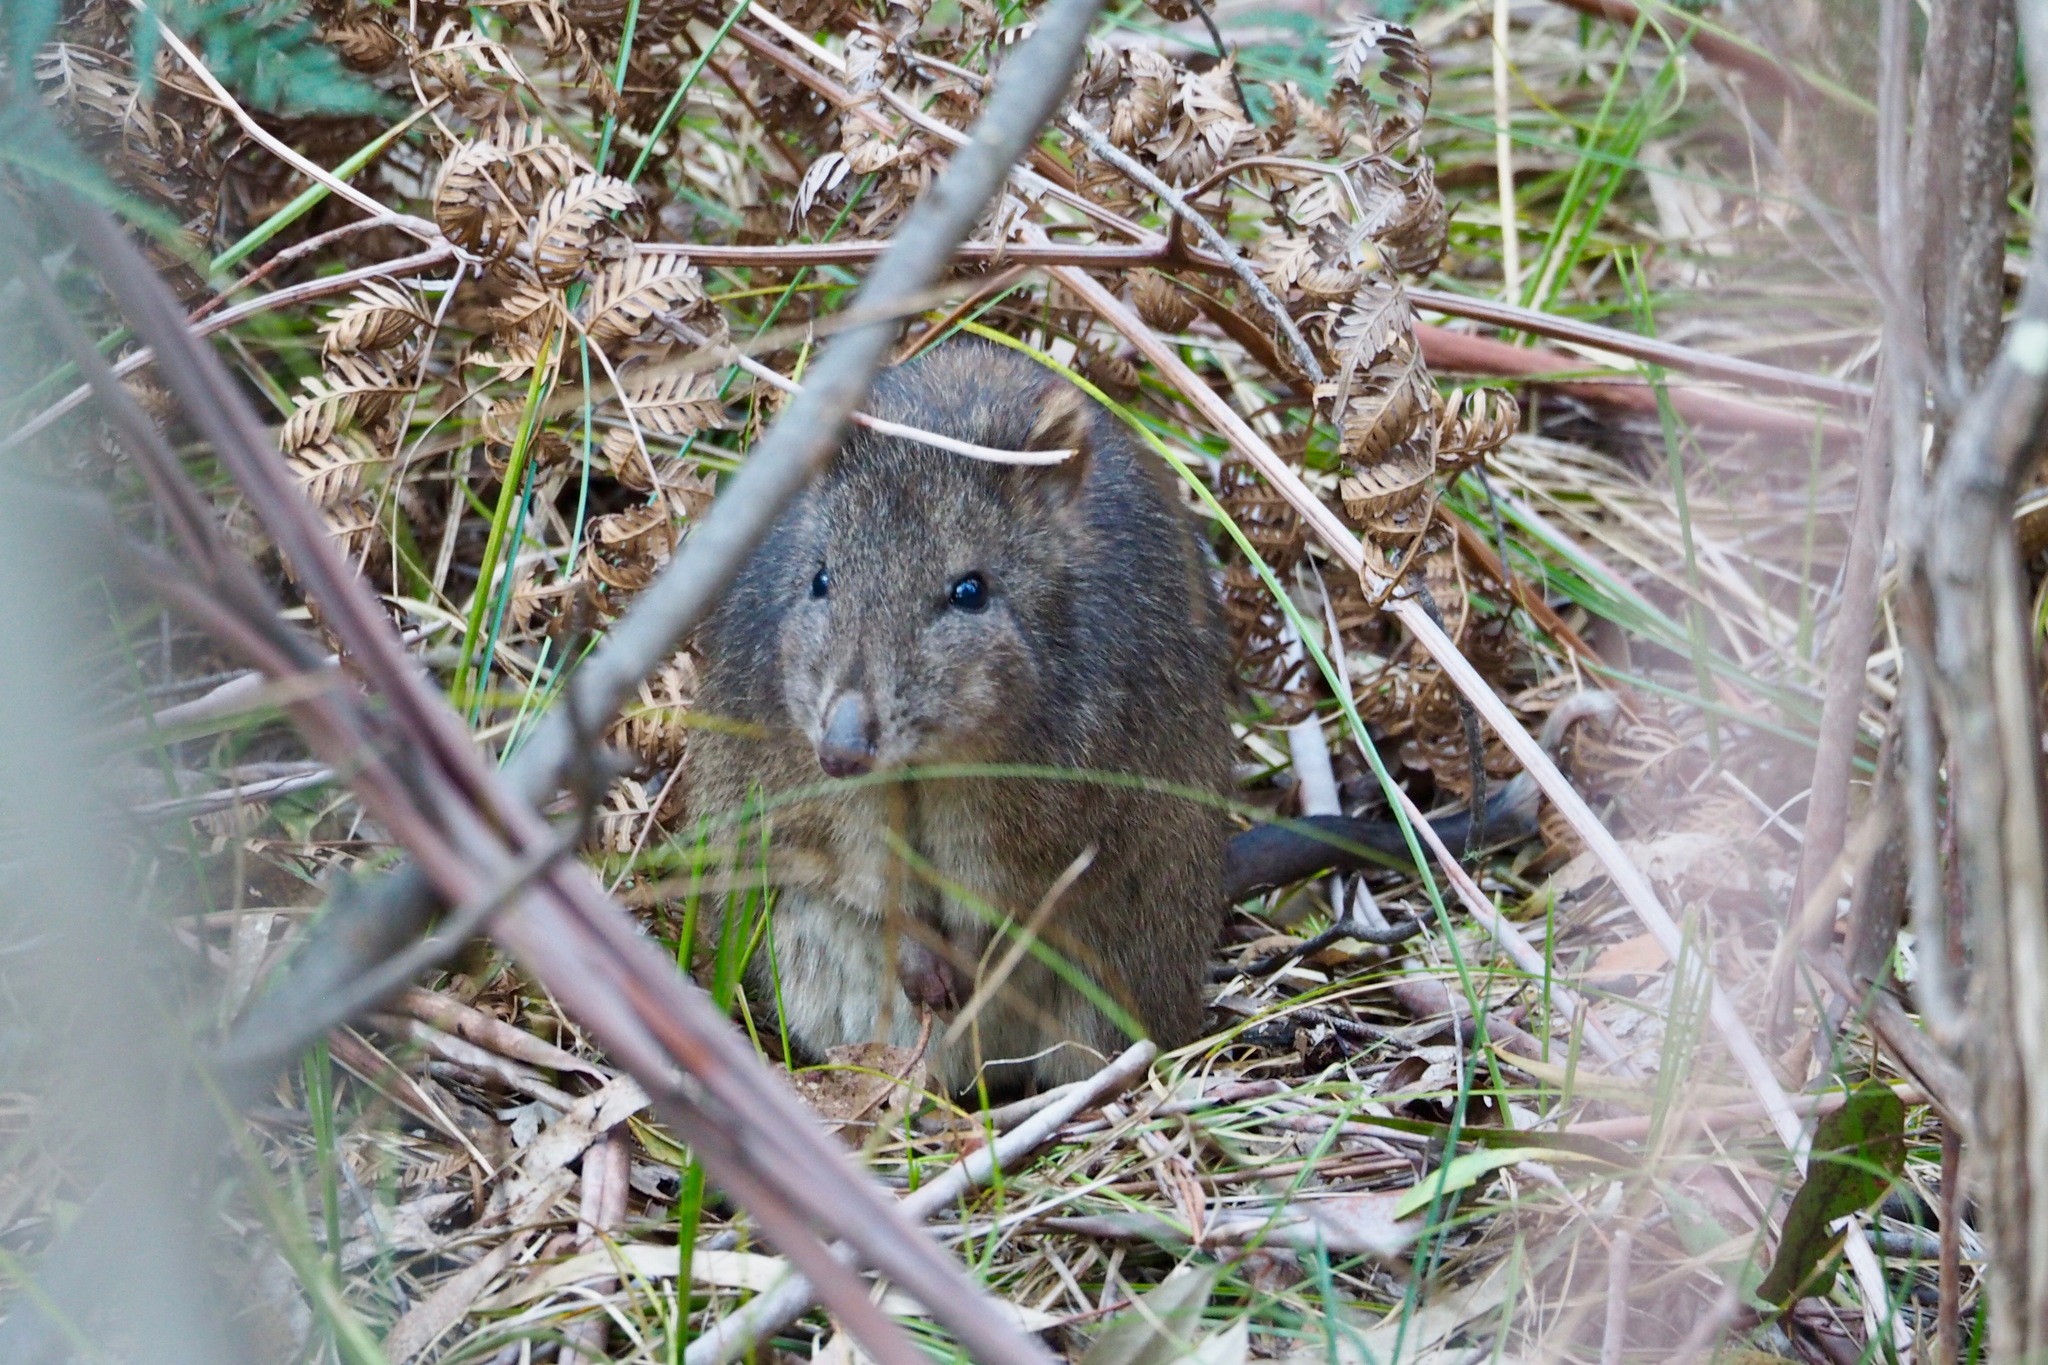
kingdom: Animalia
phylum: Chordata
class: Mammalia
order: Diprotodontia
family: Potoroidae
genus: Potorous
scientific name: Potorous tridactylus
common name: Long-nosed potoroo
